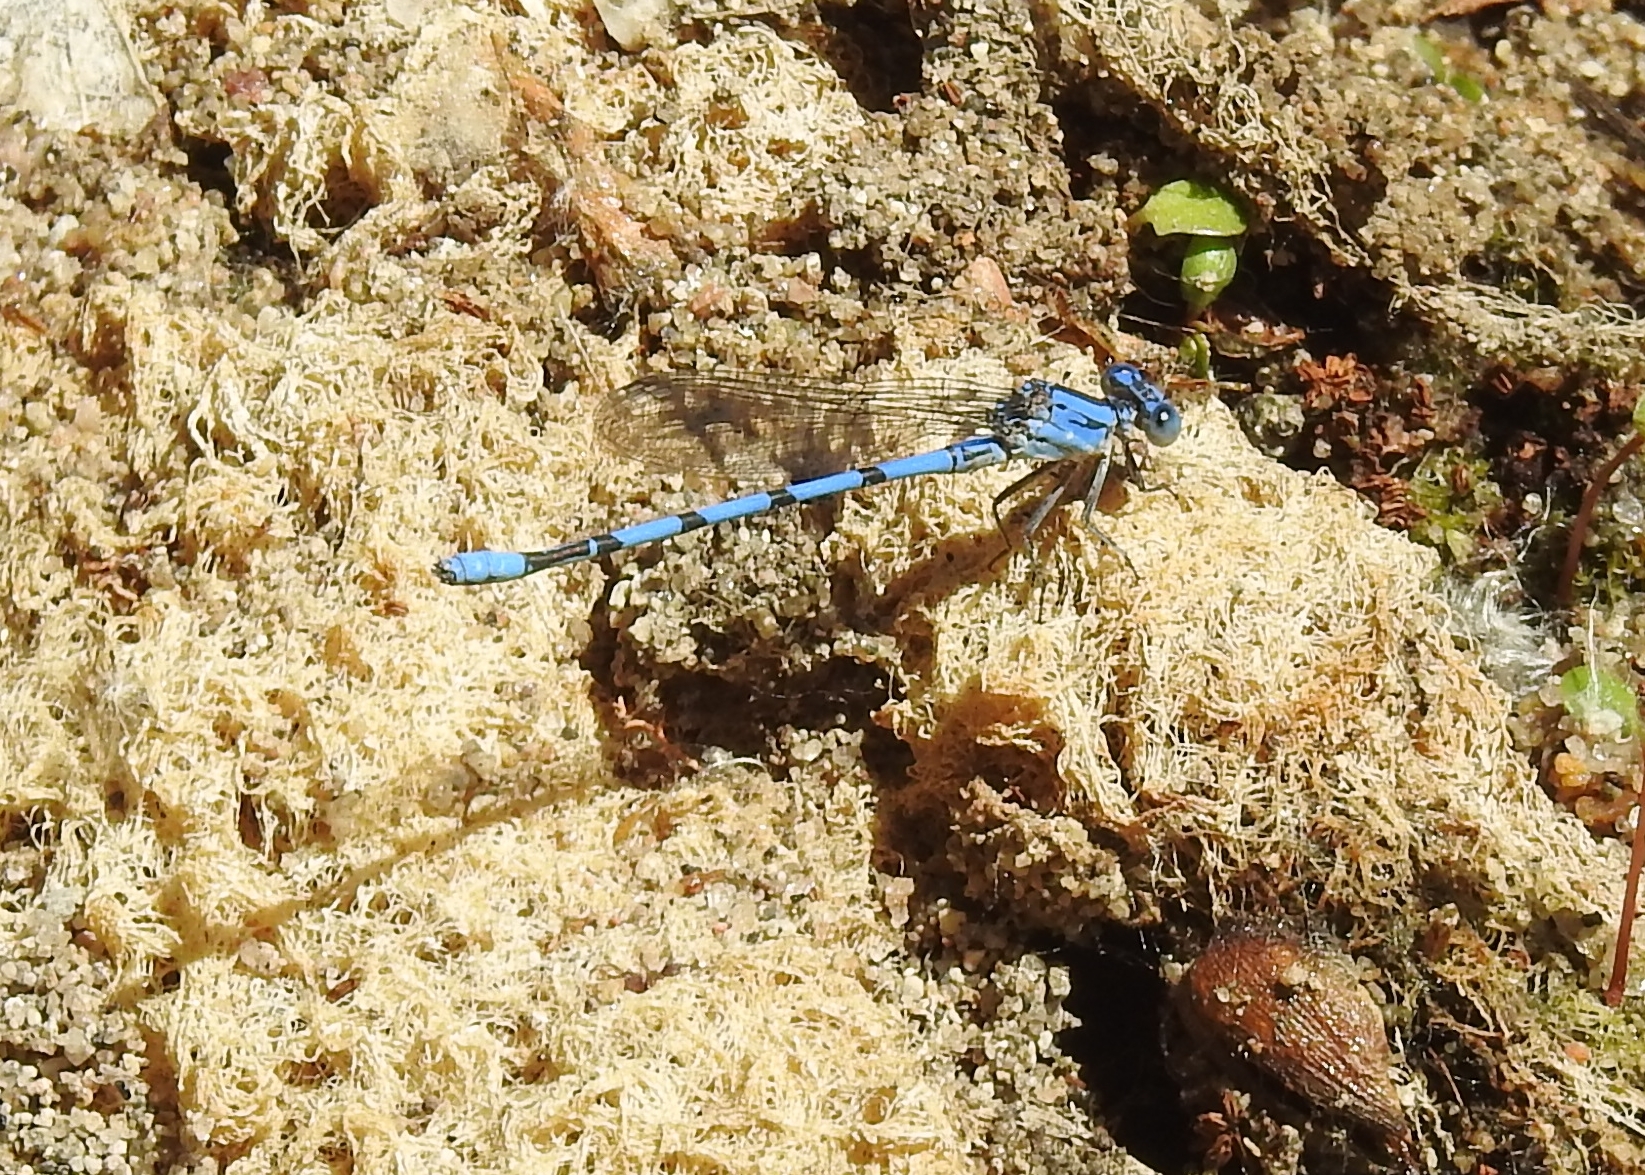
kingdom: Animalia
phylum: Arthropoda
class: Insecta
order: Odonata
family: Coenagrionidae
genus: Argia
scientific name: Argia agrioides
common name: California dancer
